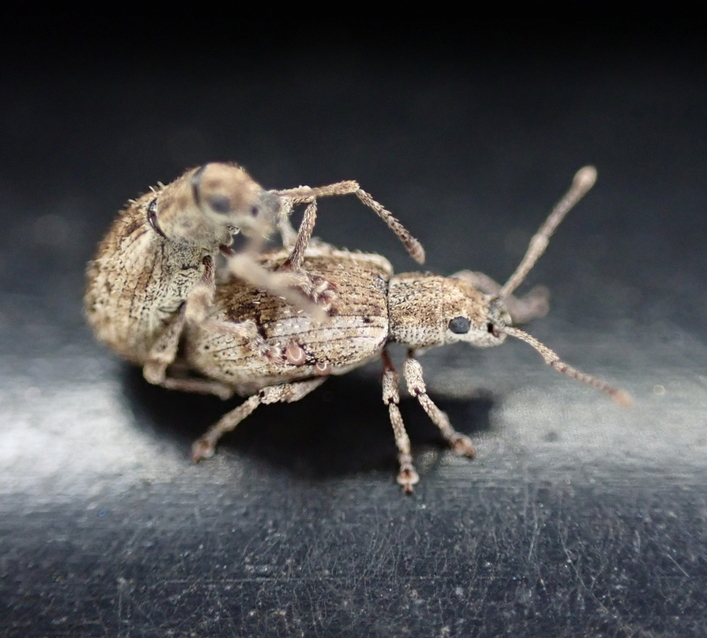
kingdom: Animalia
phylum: Arthropoda
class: Insecta
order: Coleoptera
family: Curculionidae
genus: Pseudoedophrys
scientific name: Pseudoedophrys hilleri
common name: Weevil
